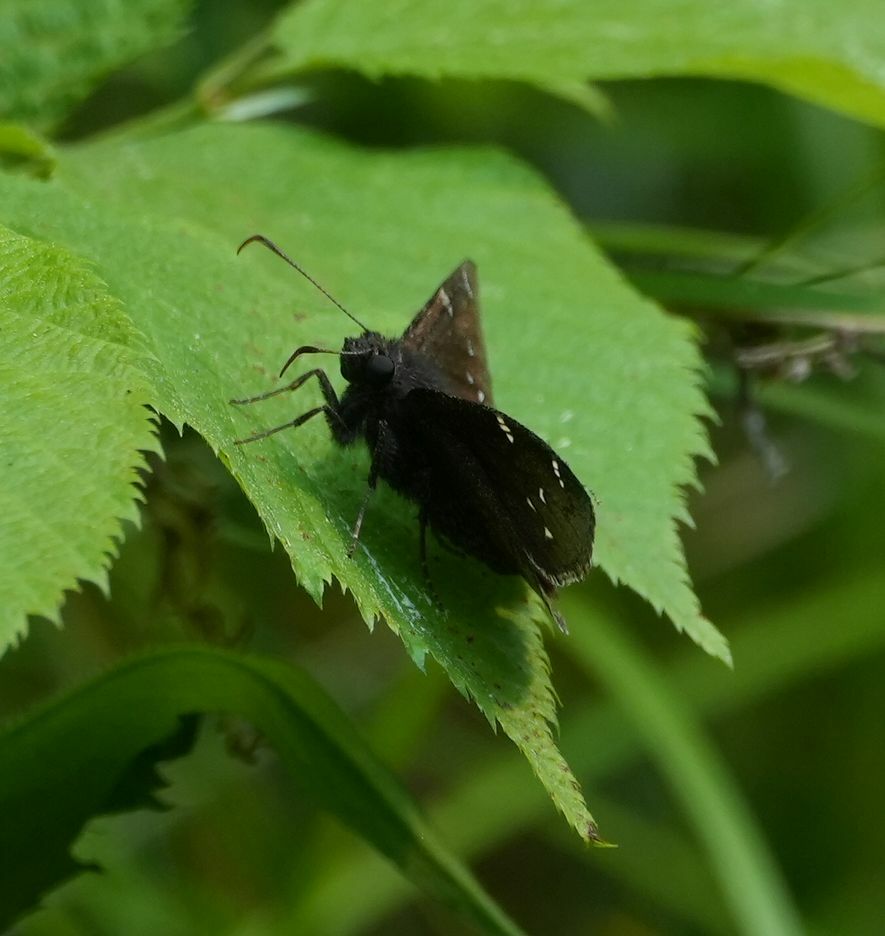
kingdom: Animalia
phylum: Arthropoda
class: Insecta
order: Lepidoptera
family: Hesperiidae
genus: Thorybes
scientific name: Thorybes pylades
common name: Northern cloudywing
